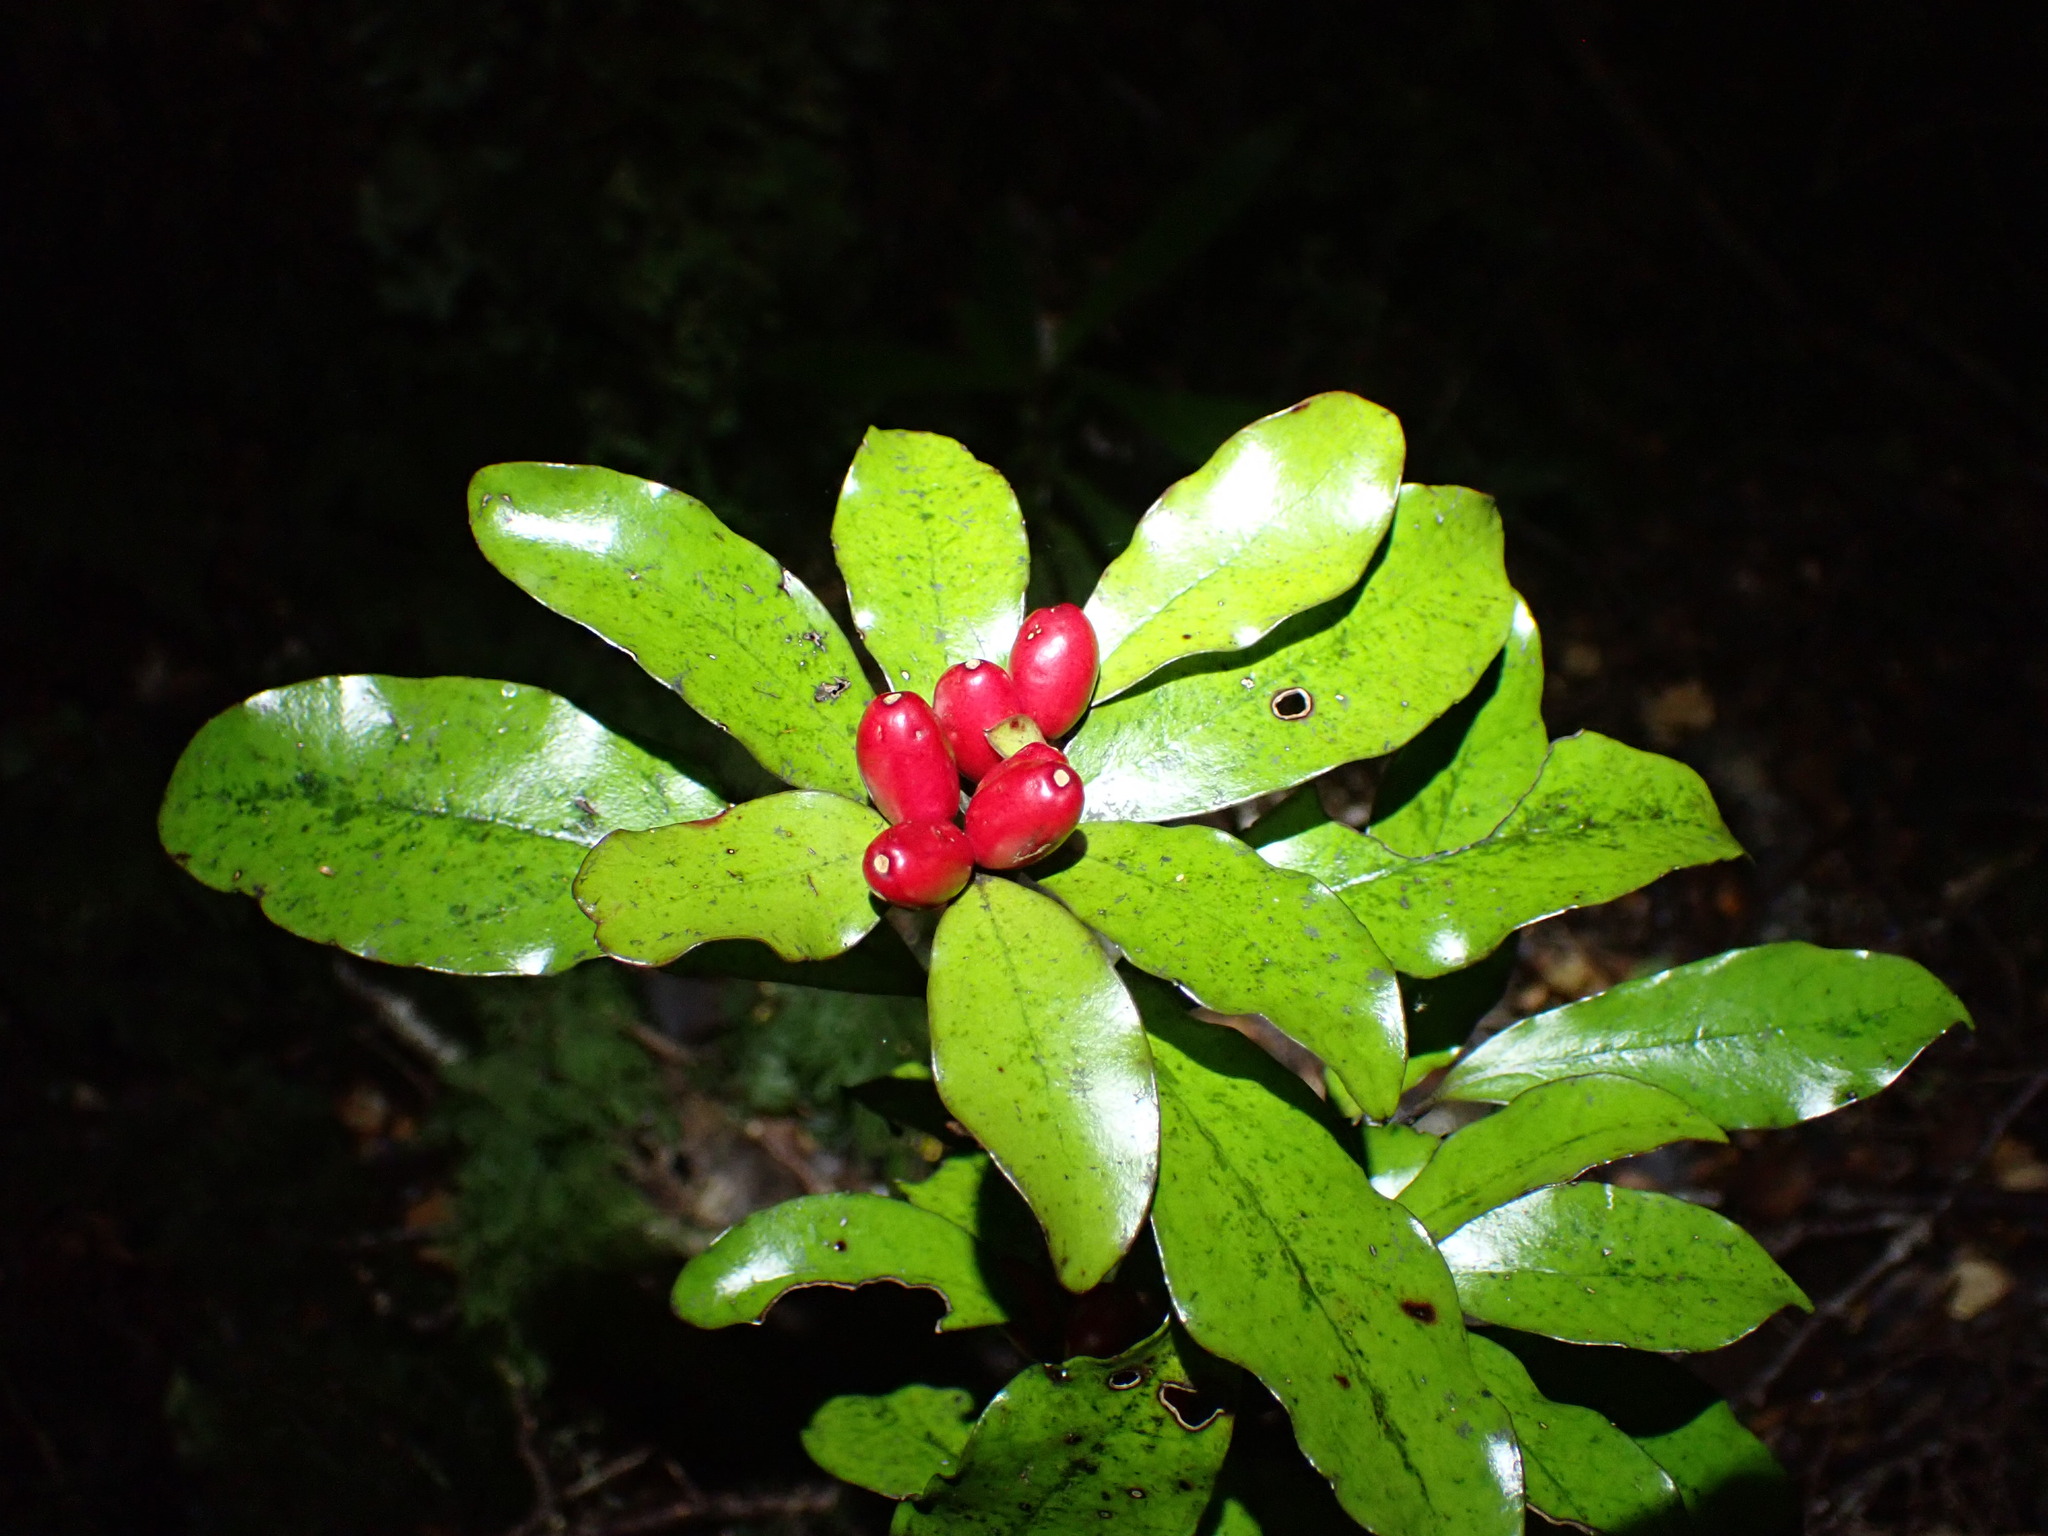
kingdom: Plantae
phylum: Tracheophyta
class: Magnoliopsida
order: Asterales
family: Alseuosmiaceae
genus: Alseuosmia
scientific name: Alseuosmia pusilla
